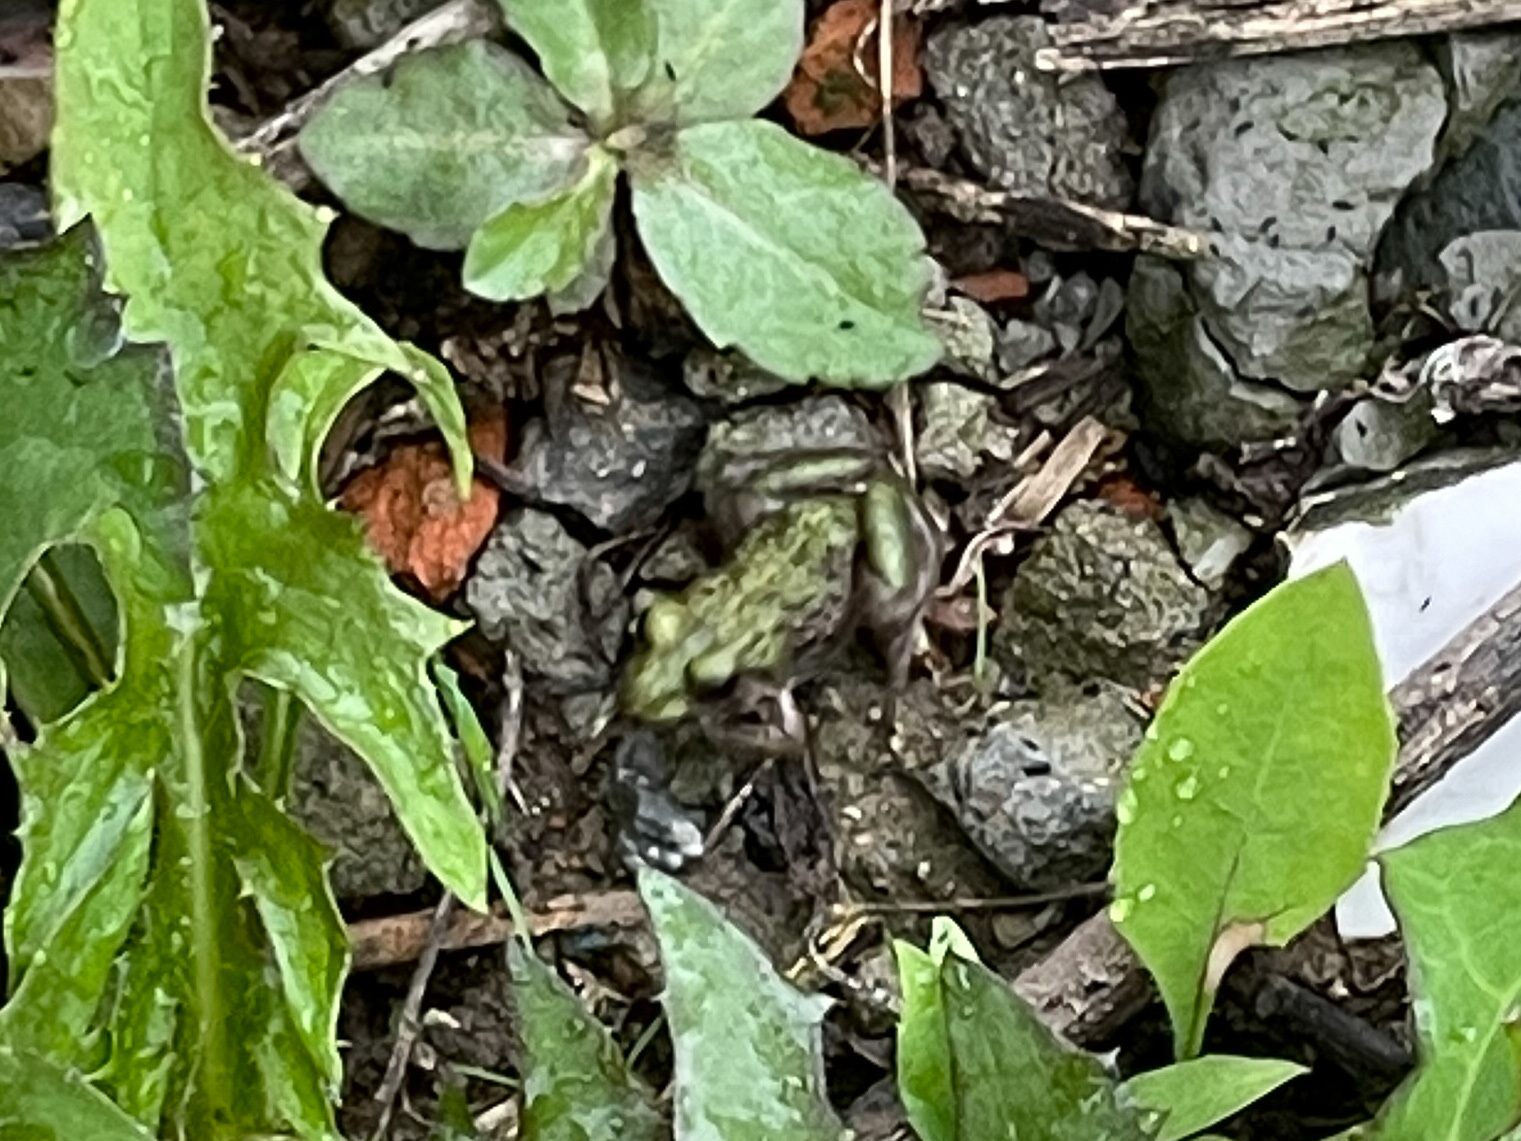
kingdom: Animalia
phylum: Chordata
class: Amphibia
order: Anura
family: Dicroglossidae
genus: Fejervarya
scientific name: Fejervarya multistriata
